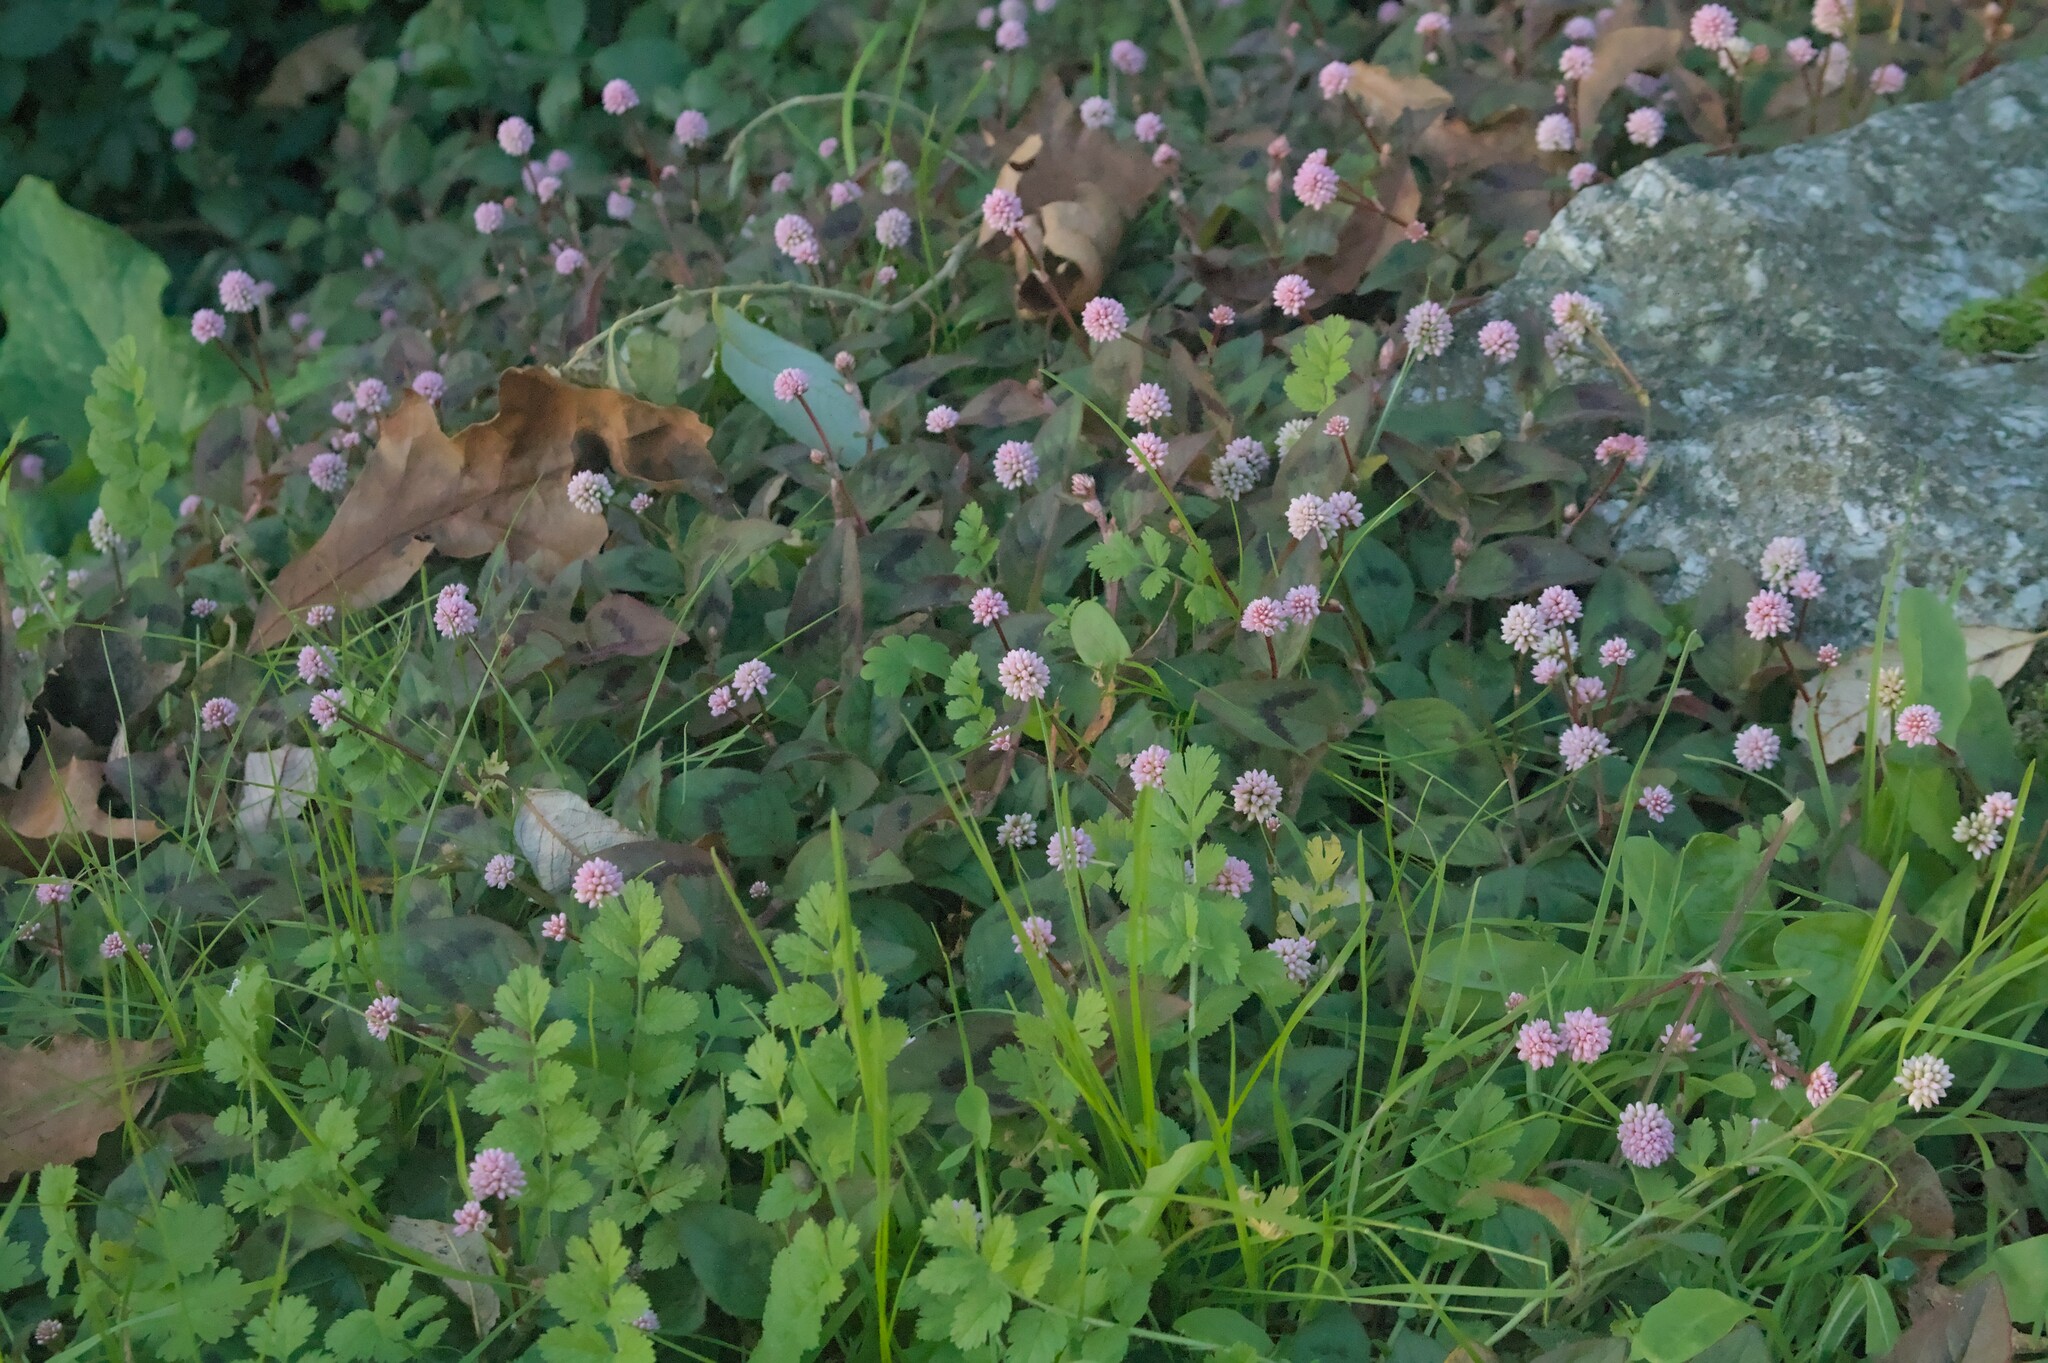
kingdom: Plantae
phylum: Tracheophyta
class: Magnoliopsida
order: Caryophyllales
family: Polygonaceae
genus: Persicaria
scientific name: Persicaria capitata
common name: Pinkhead smartweed
